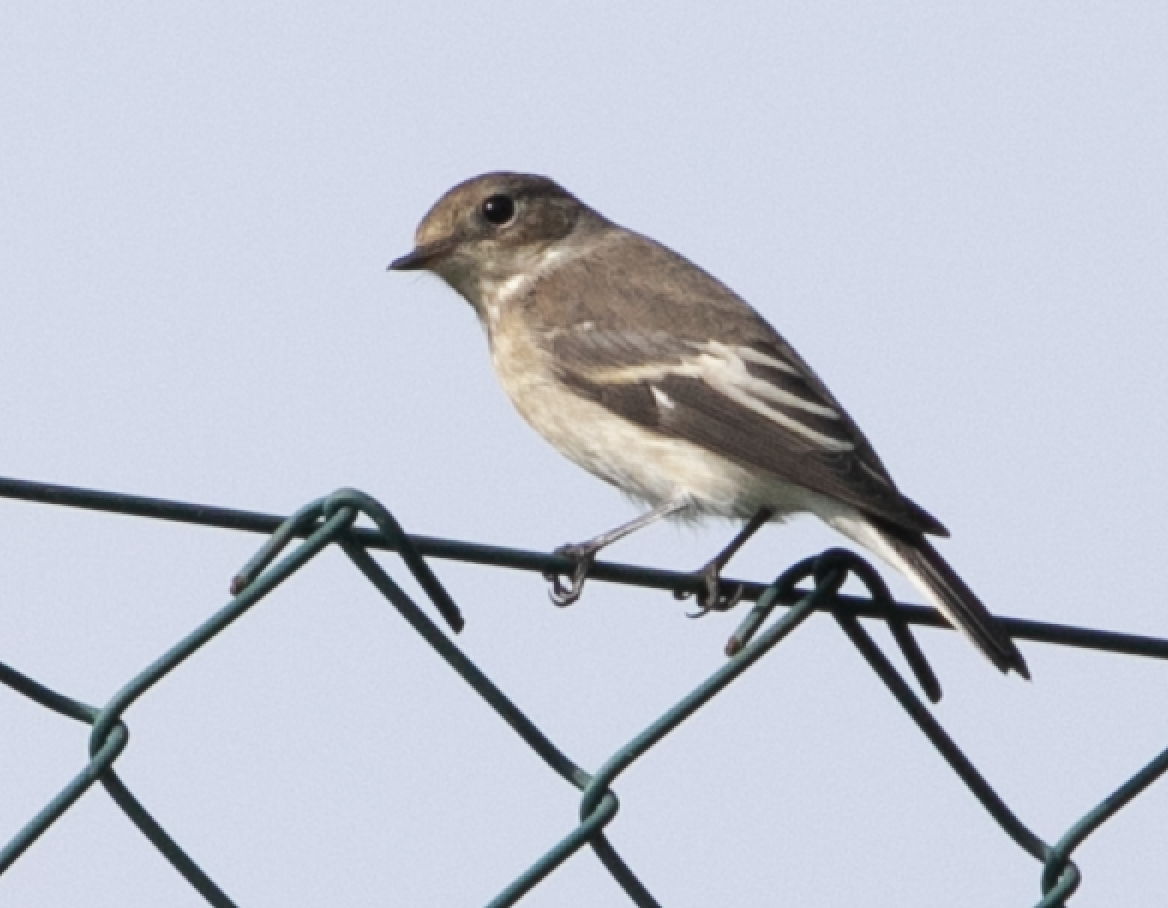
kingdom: Animalia
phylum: Chordata
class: Aves
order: Passeriformes
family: Muscicapidae
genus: Ficedula
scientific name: Ficedula hypoleuca
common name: European pied flycatcher
